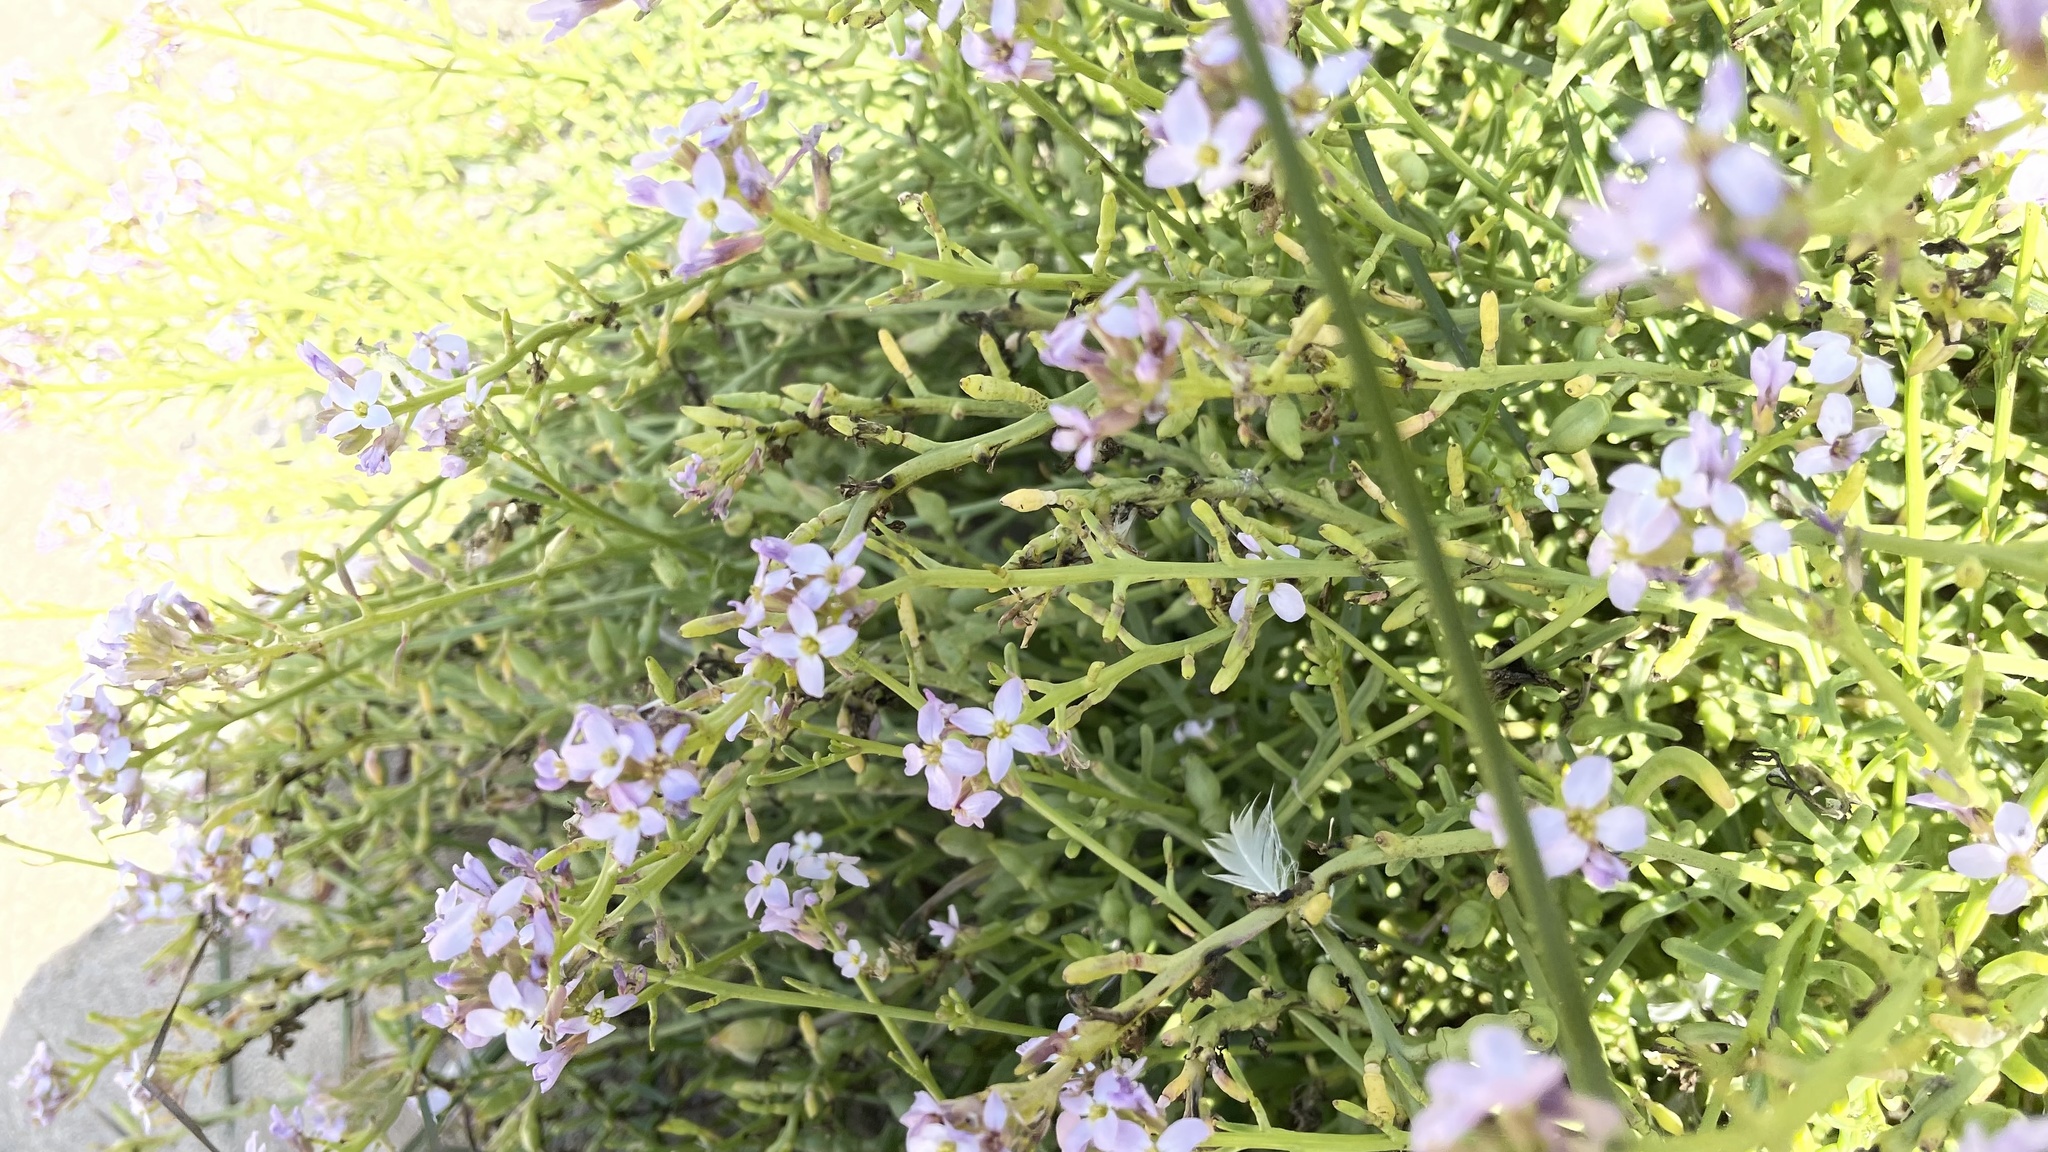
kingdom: Plantae
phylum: Tracheophyta
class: Magnoliopsida
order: Brassicales
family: Brassicaceae
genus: Cakile
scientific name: Cakile maritima
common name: Sea rocket
